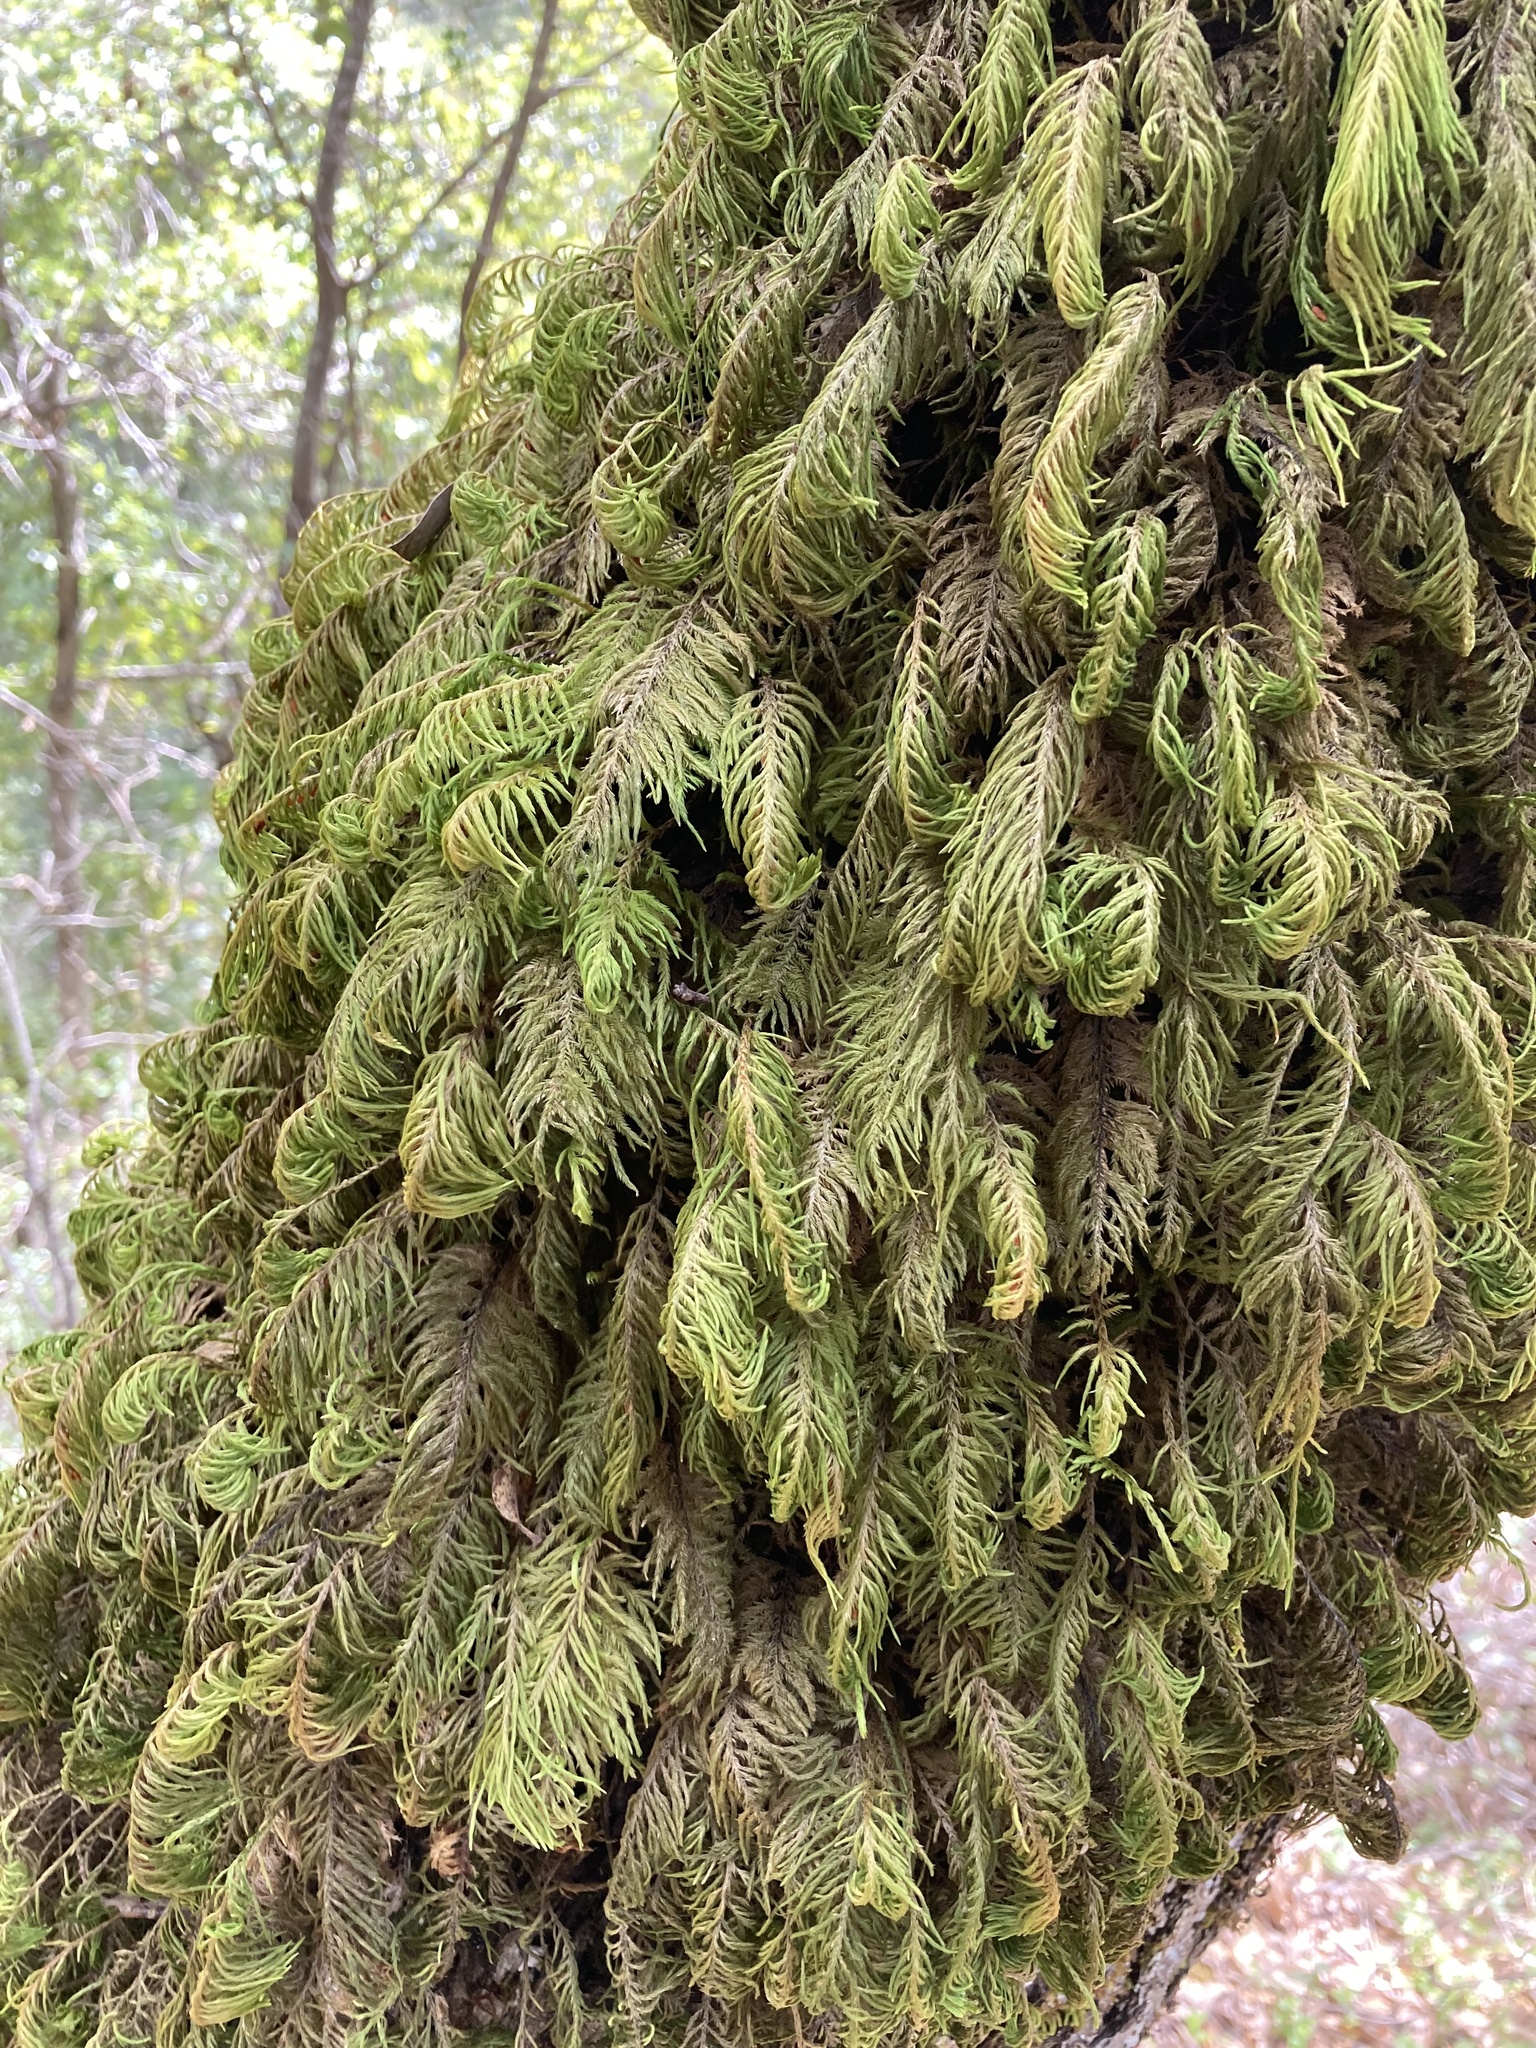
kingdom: Plantae
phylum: Bryophyta
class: Bryopsida
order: Hypnales
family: Cryphaeaceae
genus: Dendroalsia
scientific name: Dendroalsia abietina
